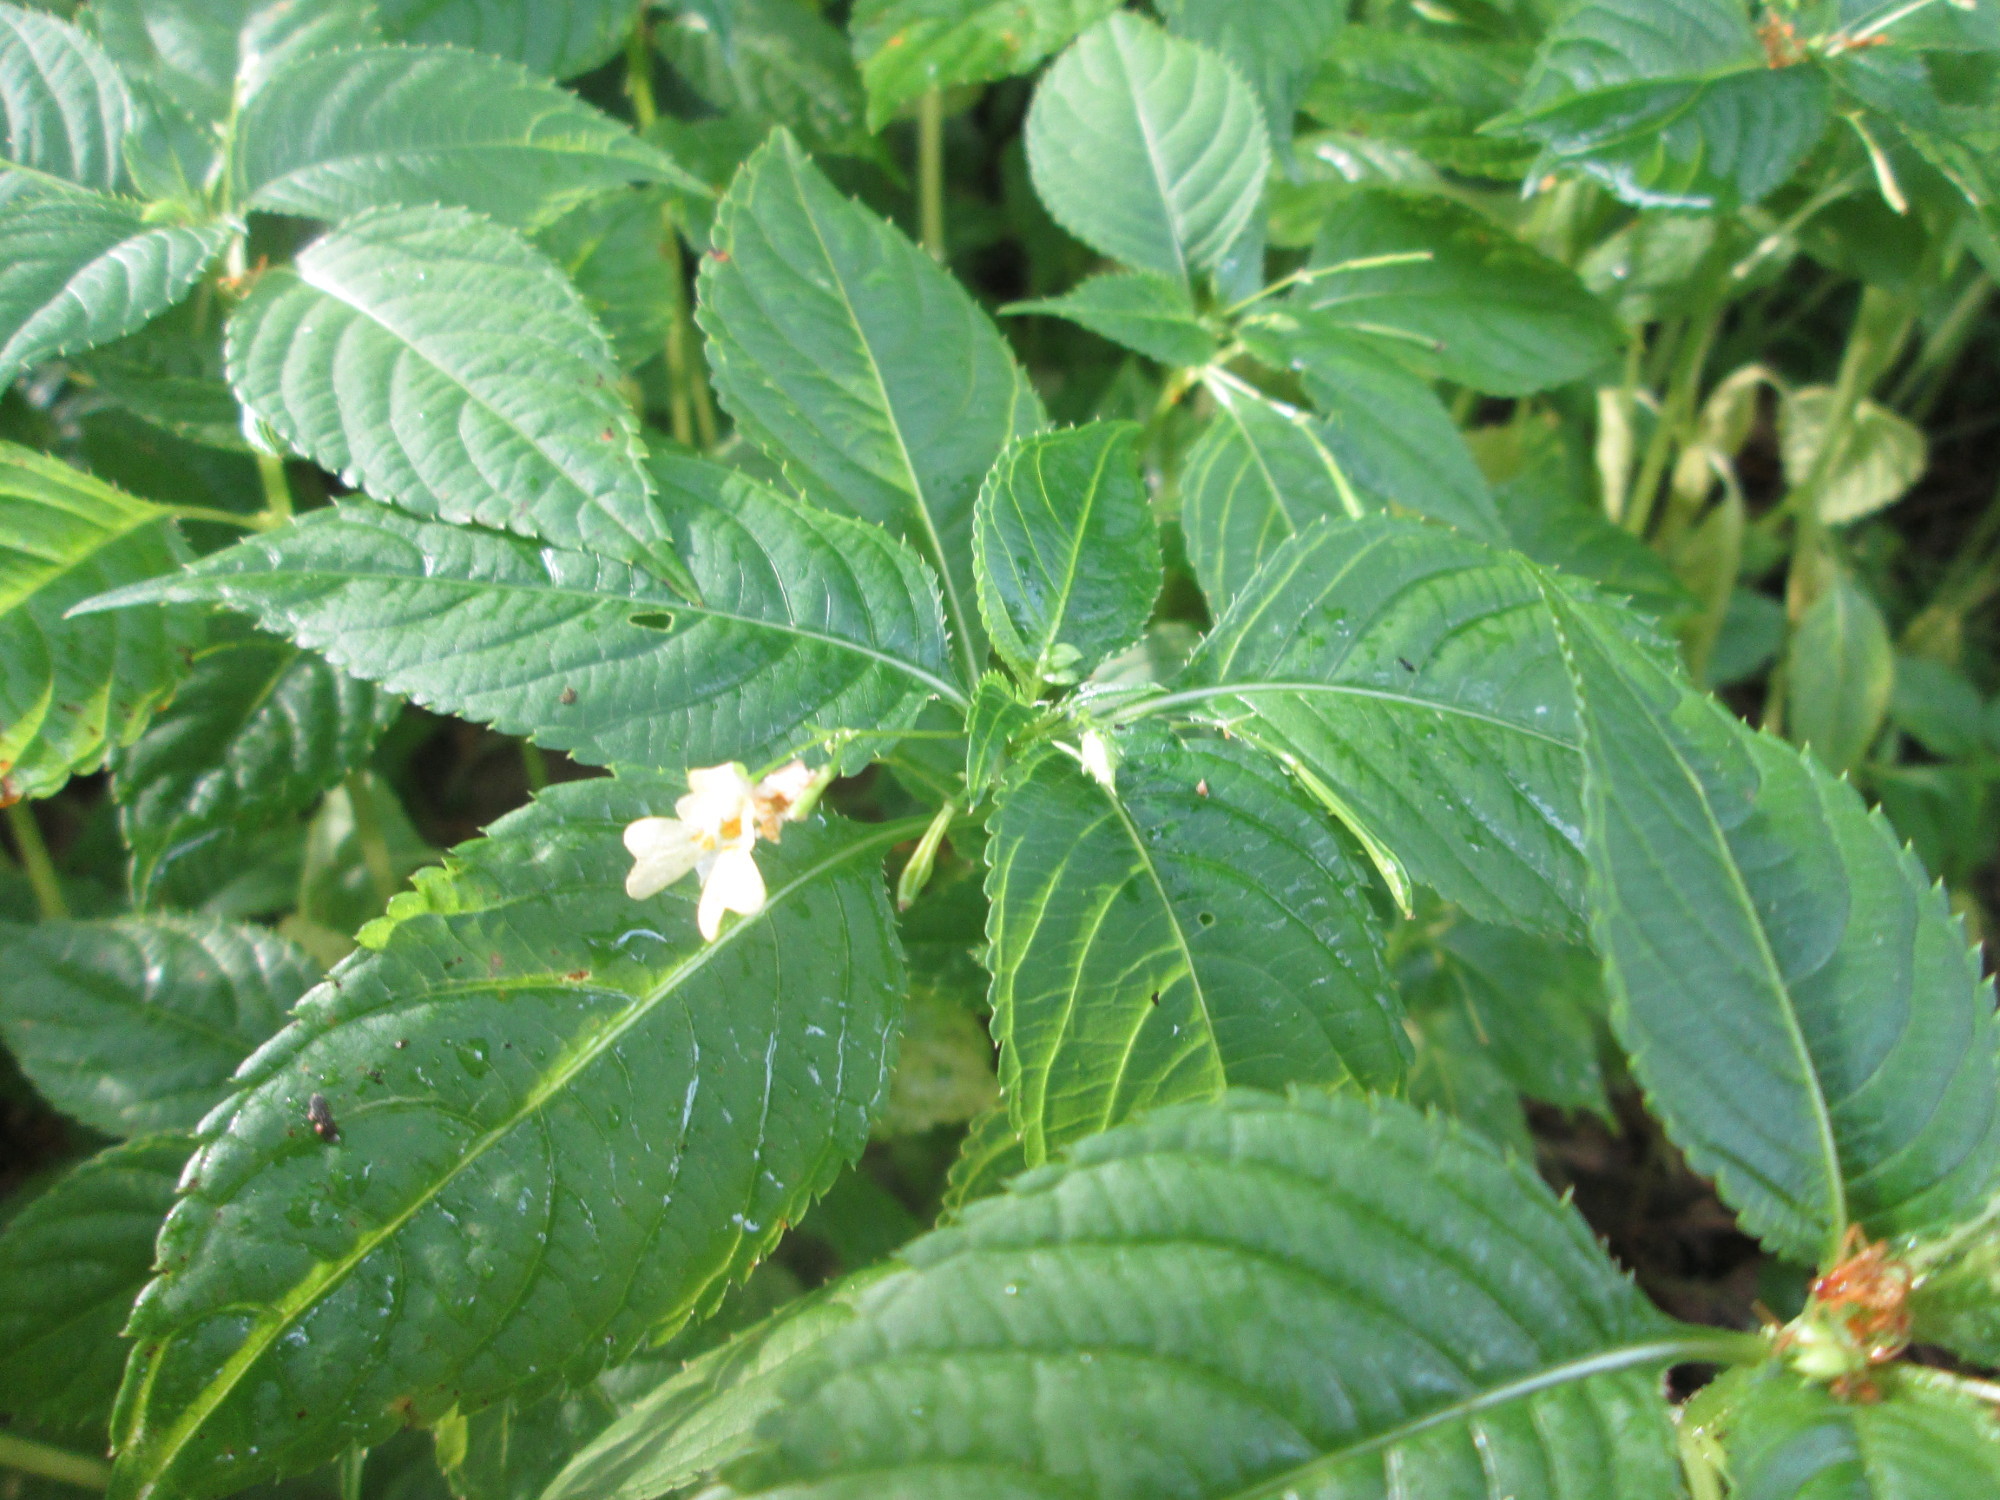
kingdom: Plantae
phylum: Tracheophyta
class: Magnoliopsida
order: Ericales
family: Balsaminaceae
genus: Impatiens
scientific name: Impatiens parviflora
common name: Small balsam
